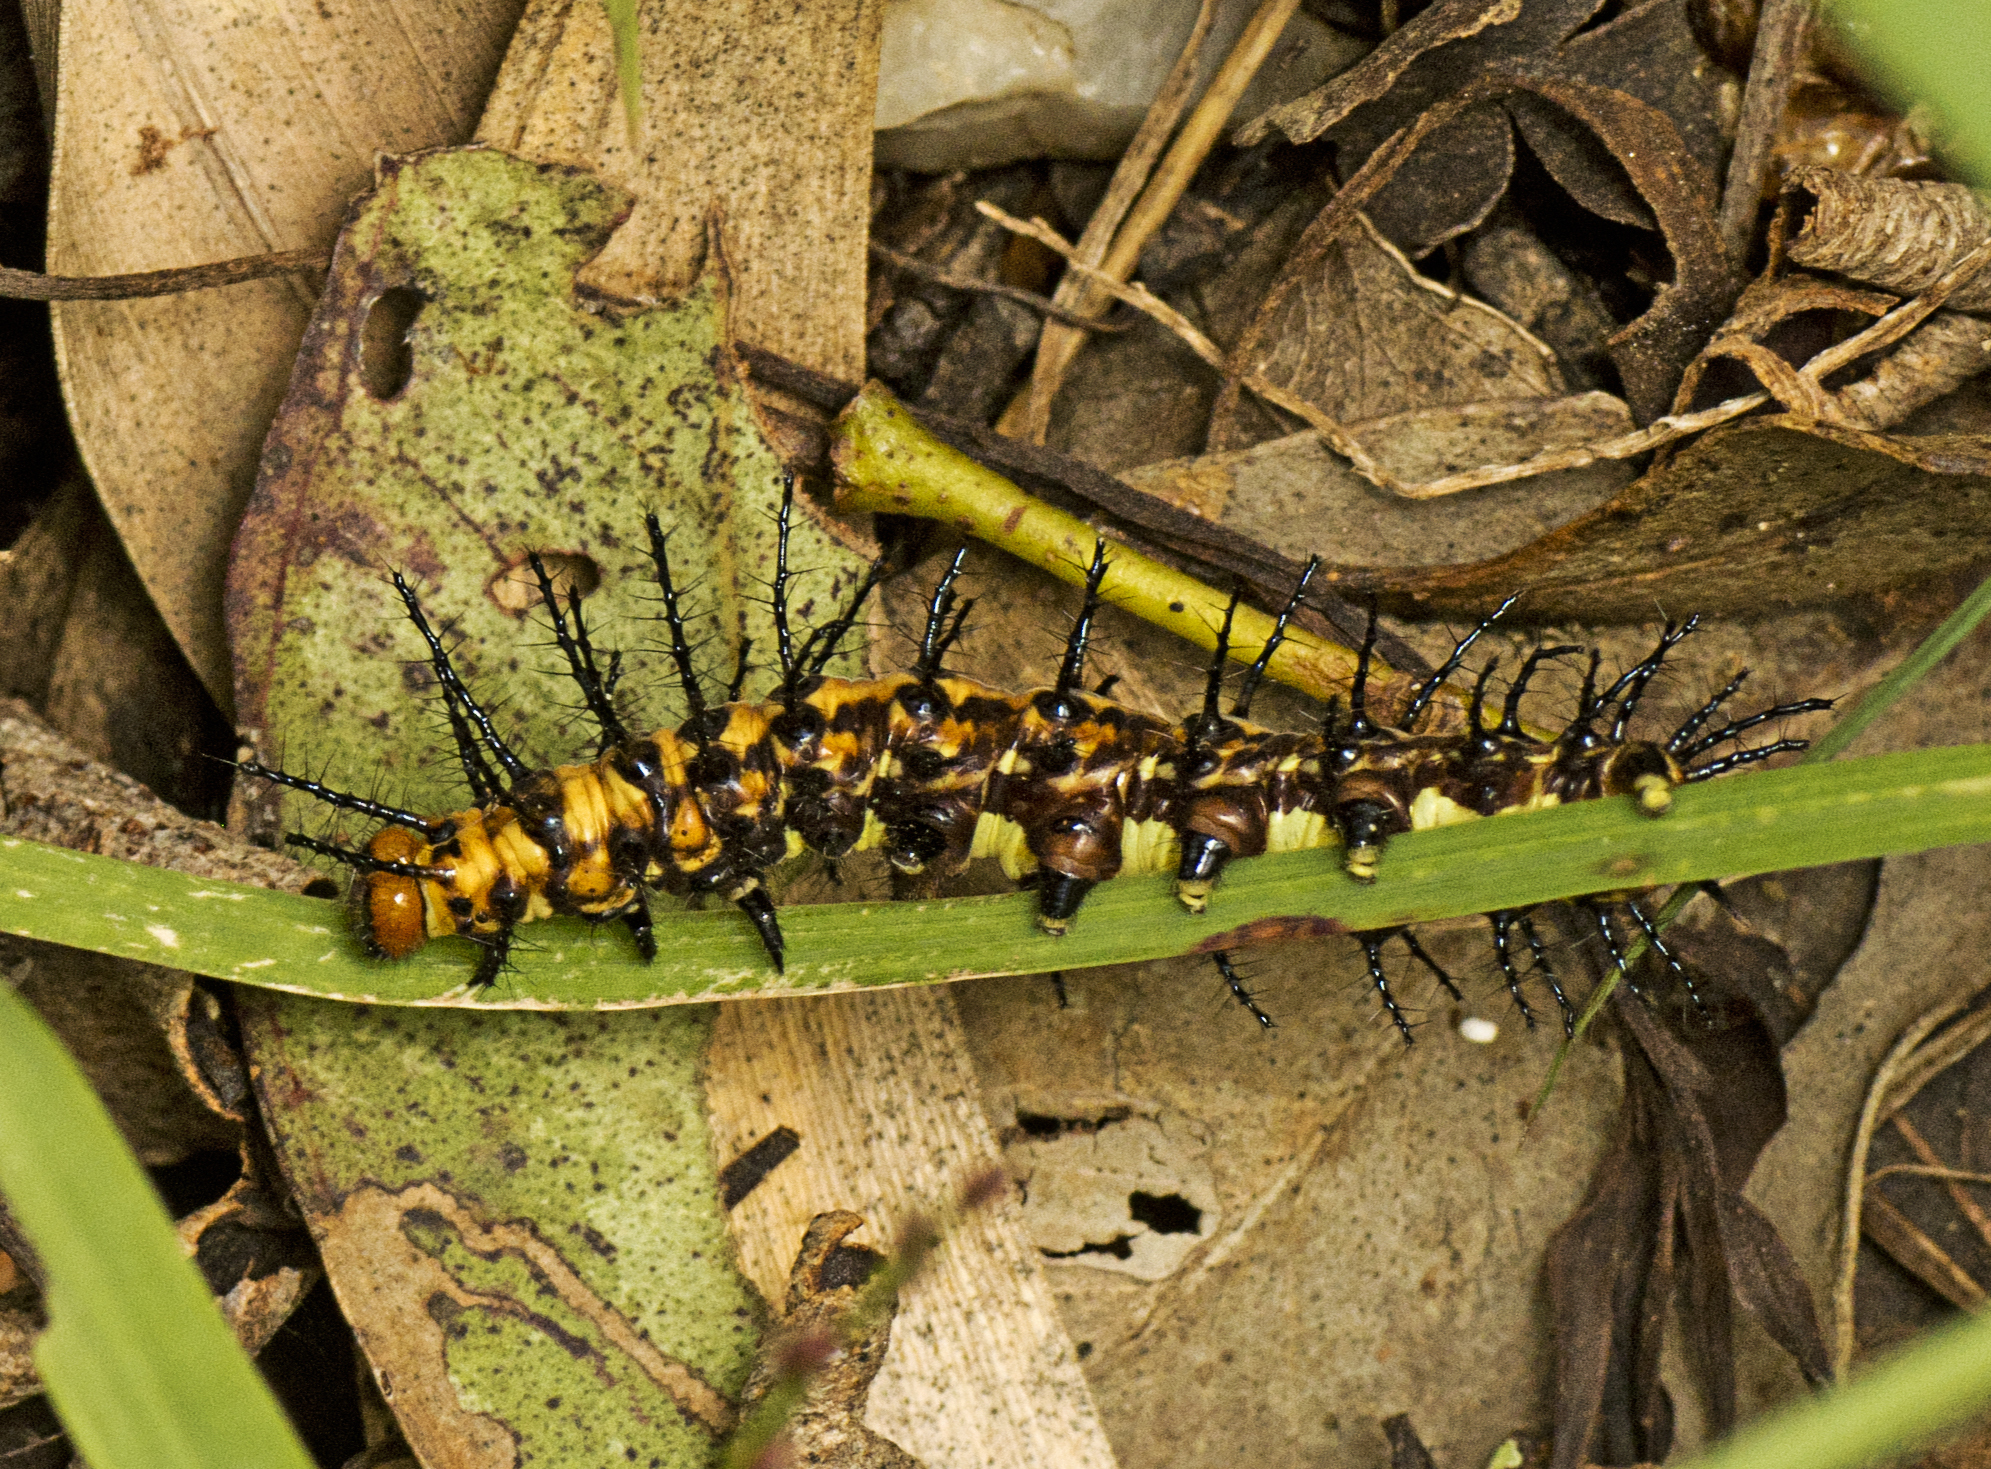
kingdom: Animalia
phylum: Arthropoda
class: Insecta
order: Lepidoptera
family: Nymphalidae
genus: Acraea
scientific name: Acraea andromacha
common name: Glasswing
